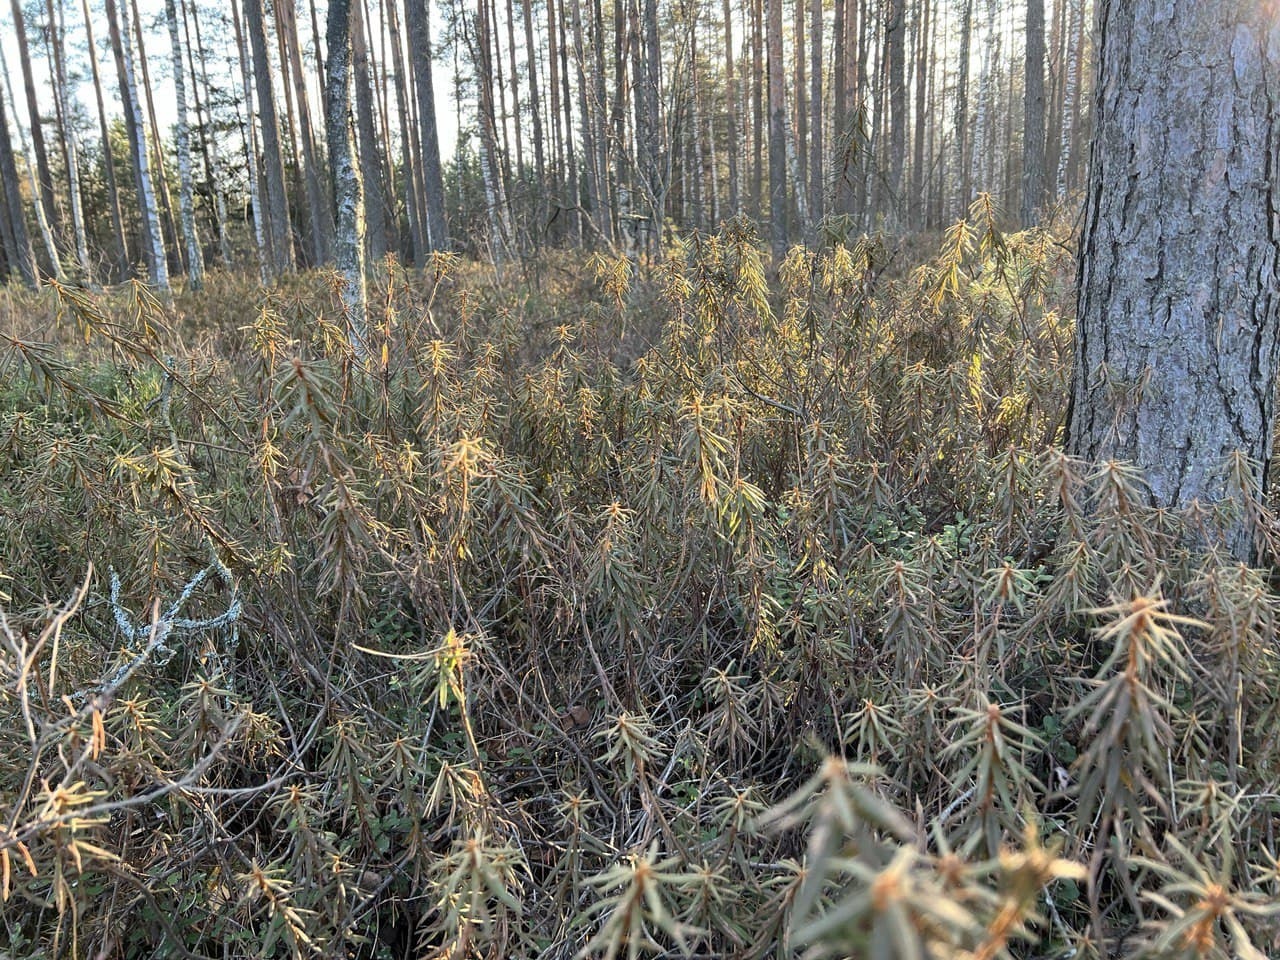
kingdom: Plantae
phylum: Tracheophyta
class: Magnoliopsida
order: Ericales
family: Ericaceae
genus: Rhododendron
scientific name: Rhododendron tomentosum
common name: Marsh labrador tea
